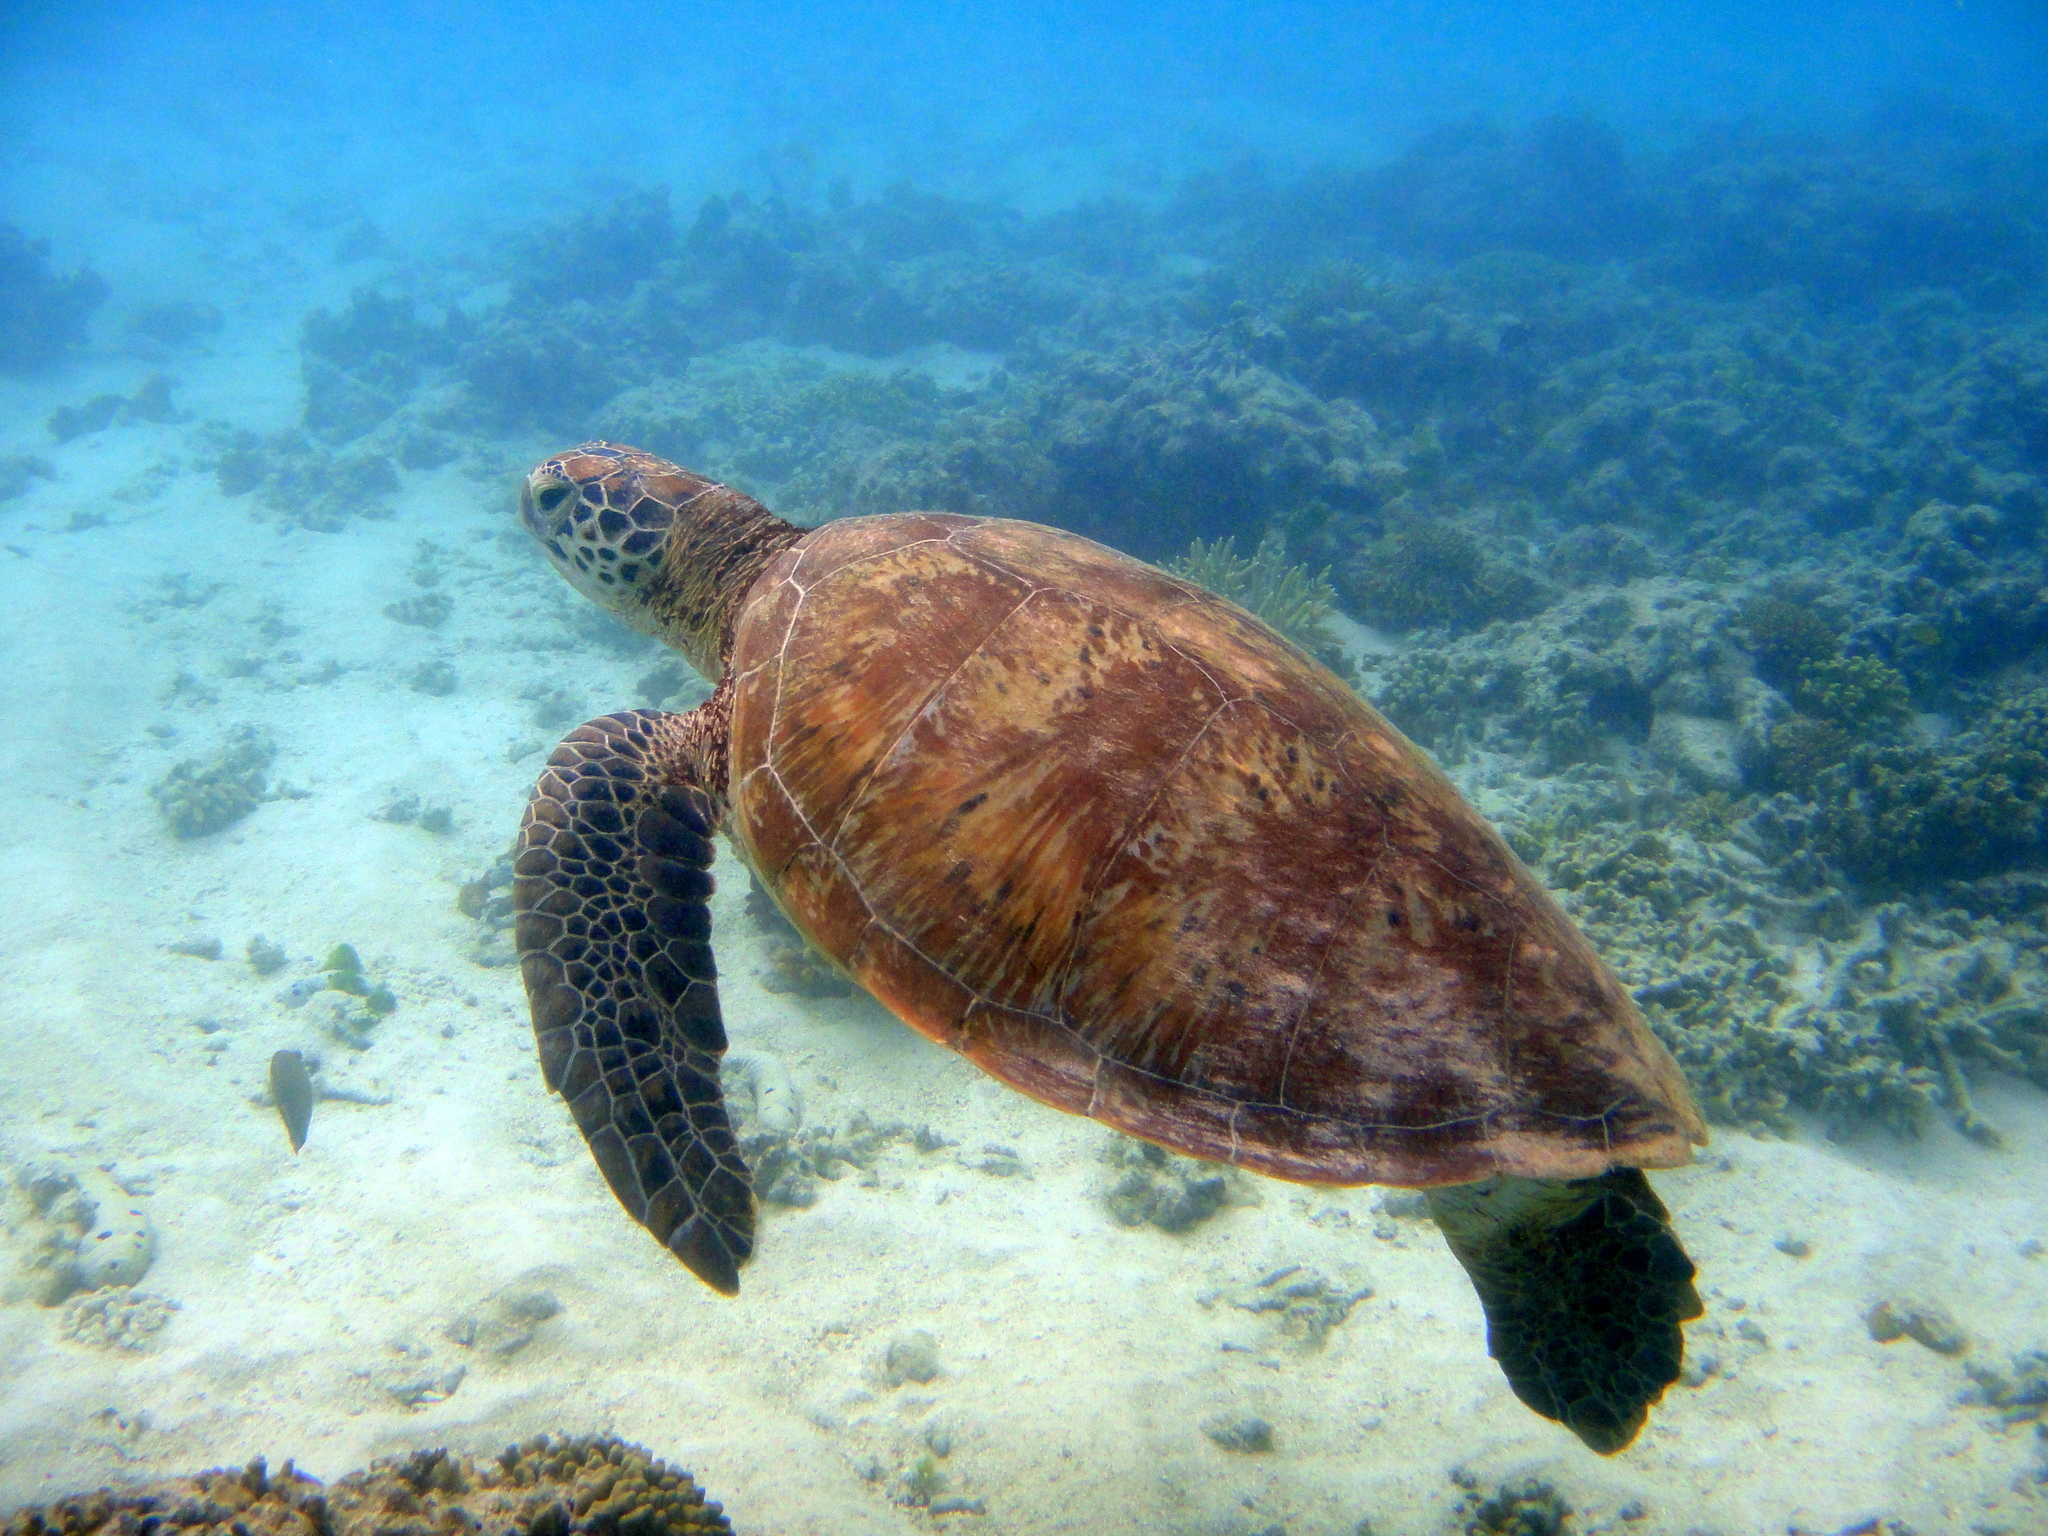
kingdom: Animalia
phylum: Chordata
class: Testudines
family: Cheloniidae
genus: Chelonia
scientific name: Chelonia mydas
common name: Green turtle
